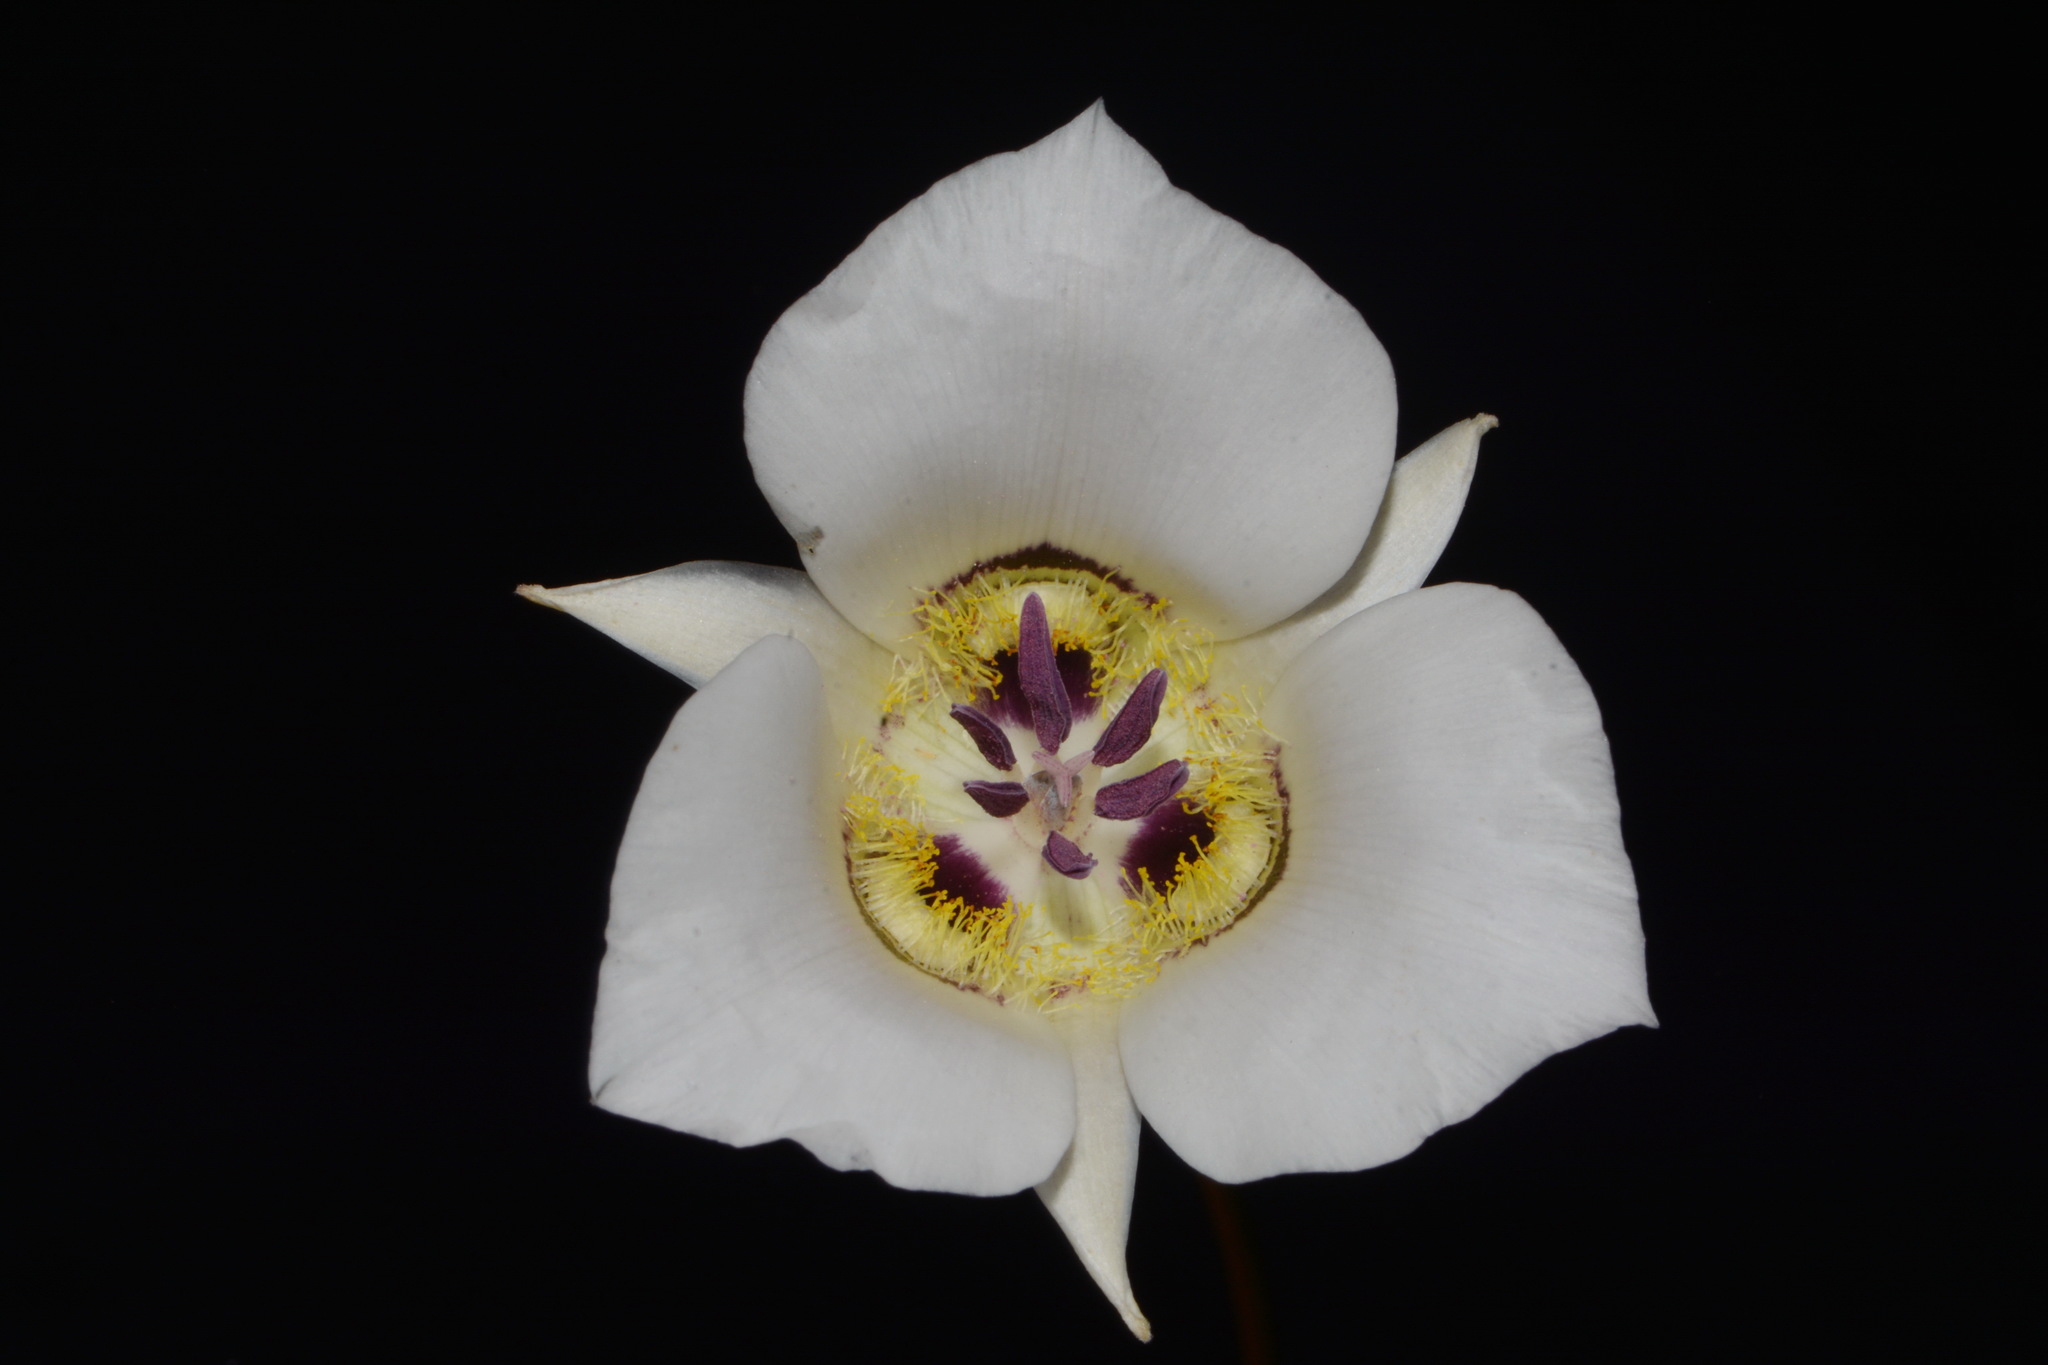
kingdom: Plantae
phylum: Tracheophyta
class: Liliopsida
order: Liliales
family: Liliaceae
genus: Calochortus
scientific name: Calochortus ambiguus
